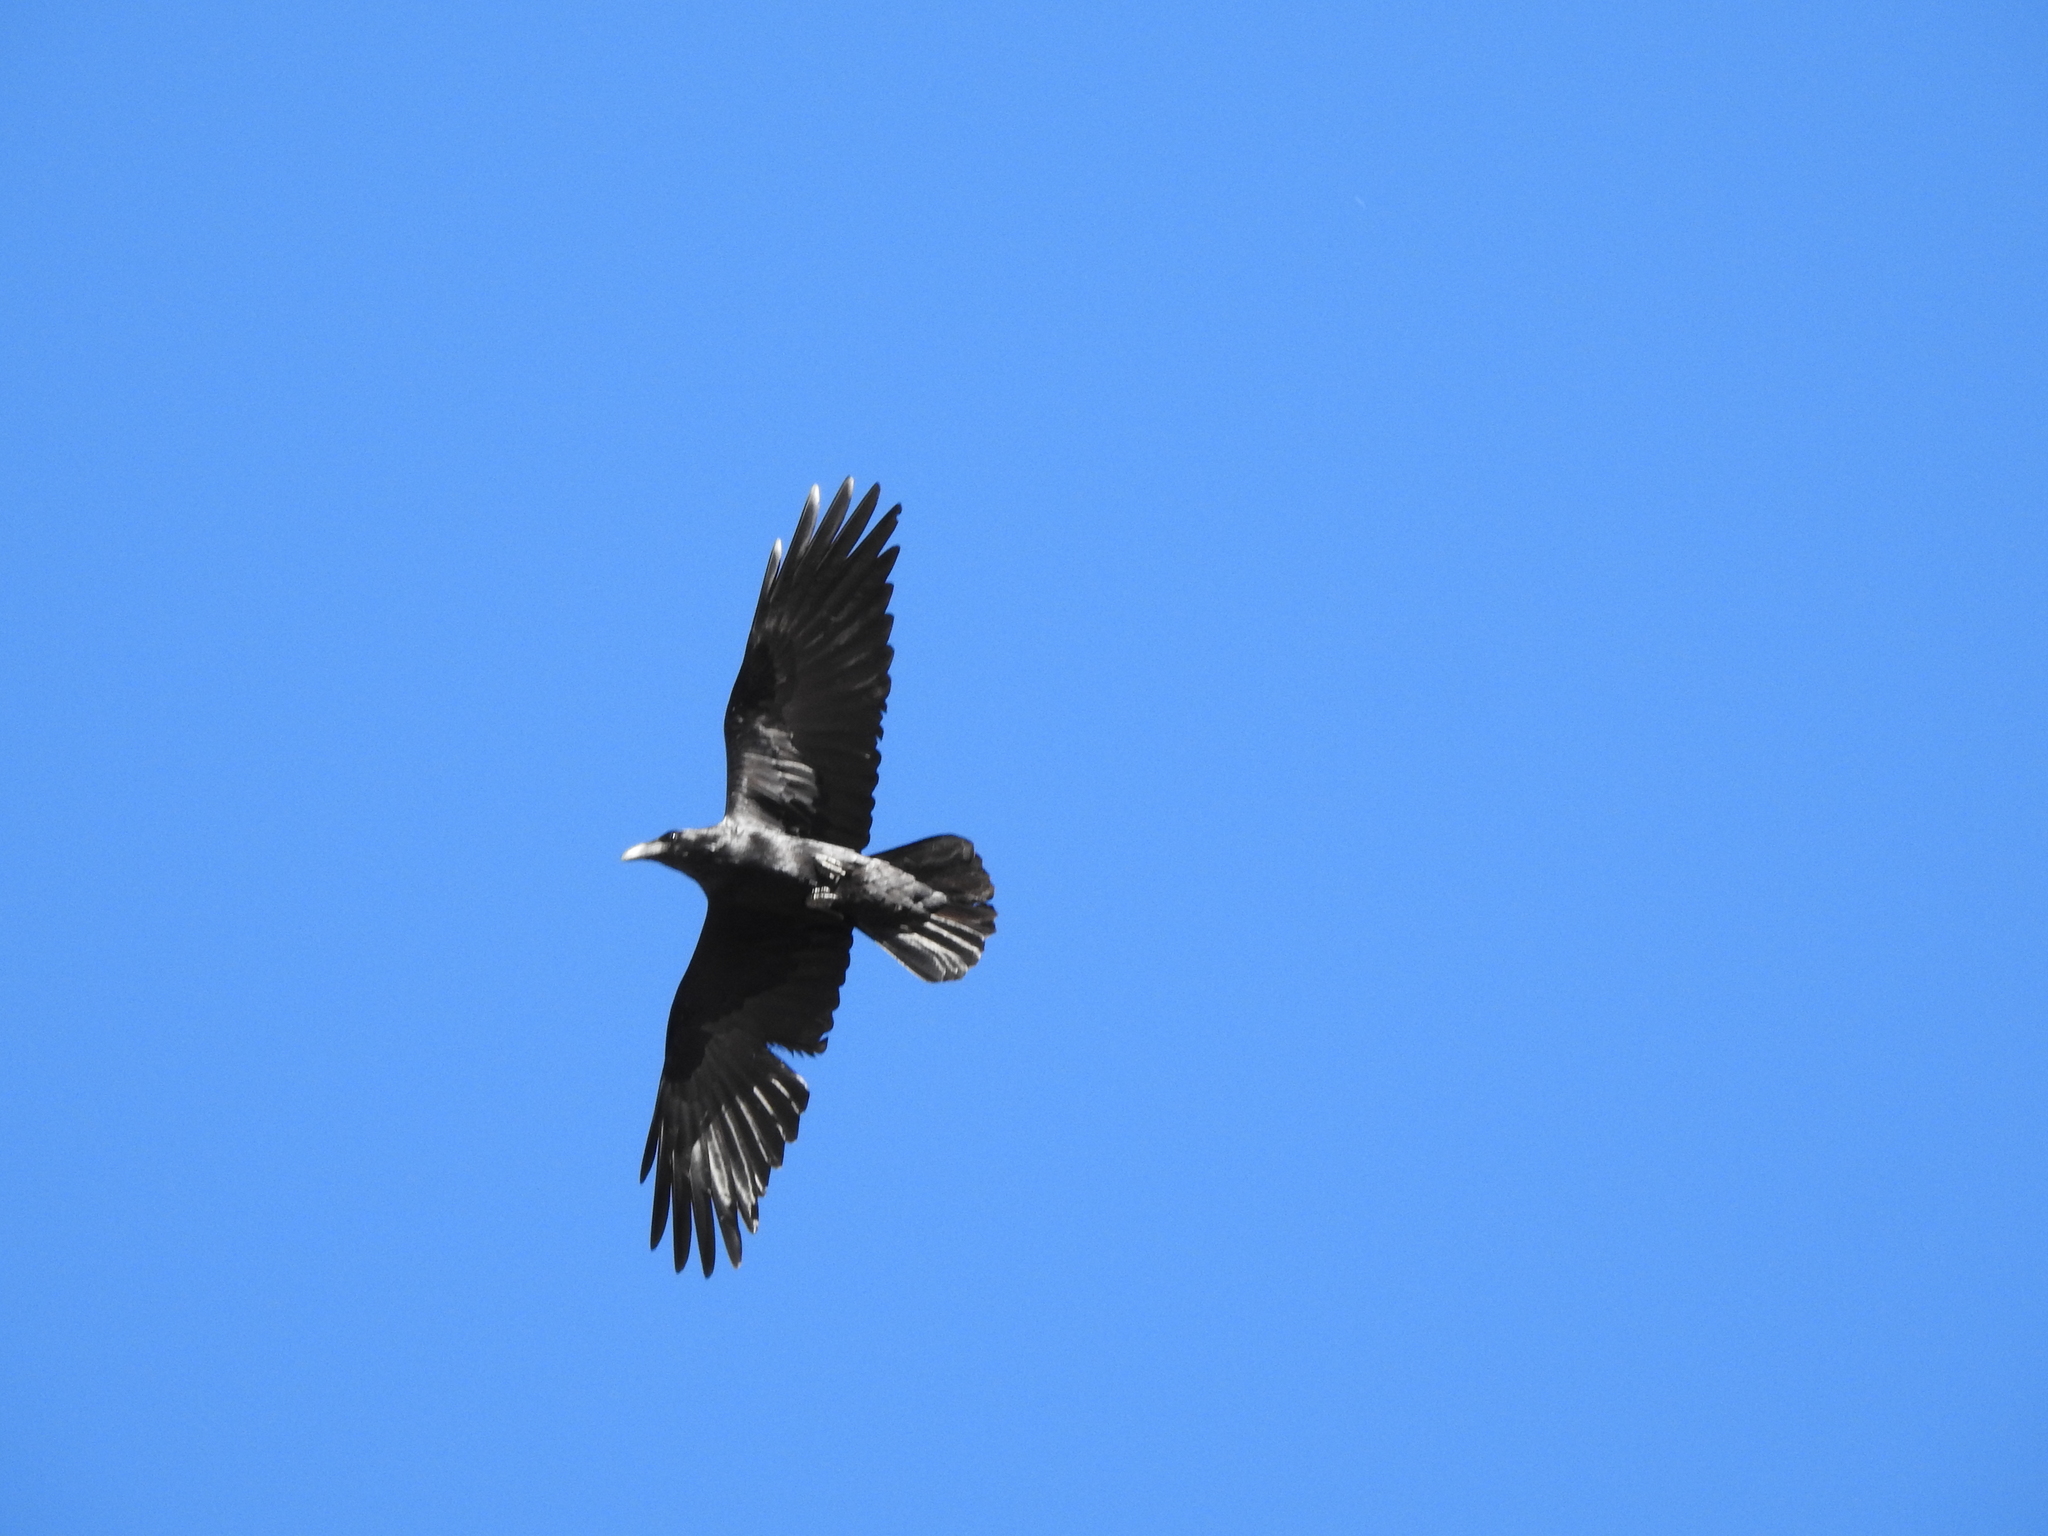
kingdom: Animalia
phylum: Chordata
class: Aves
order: Passeriformes
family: Corvidae
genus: Corvus
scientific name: Corvus corax
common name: Common raven
